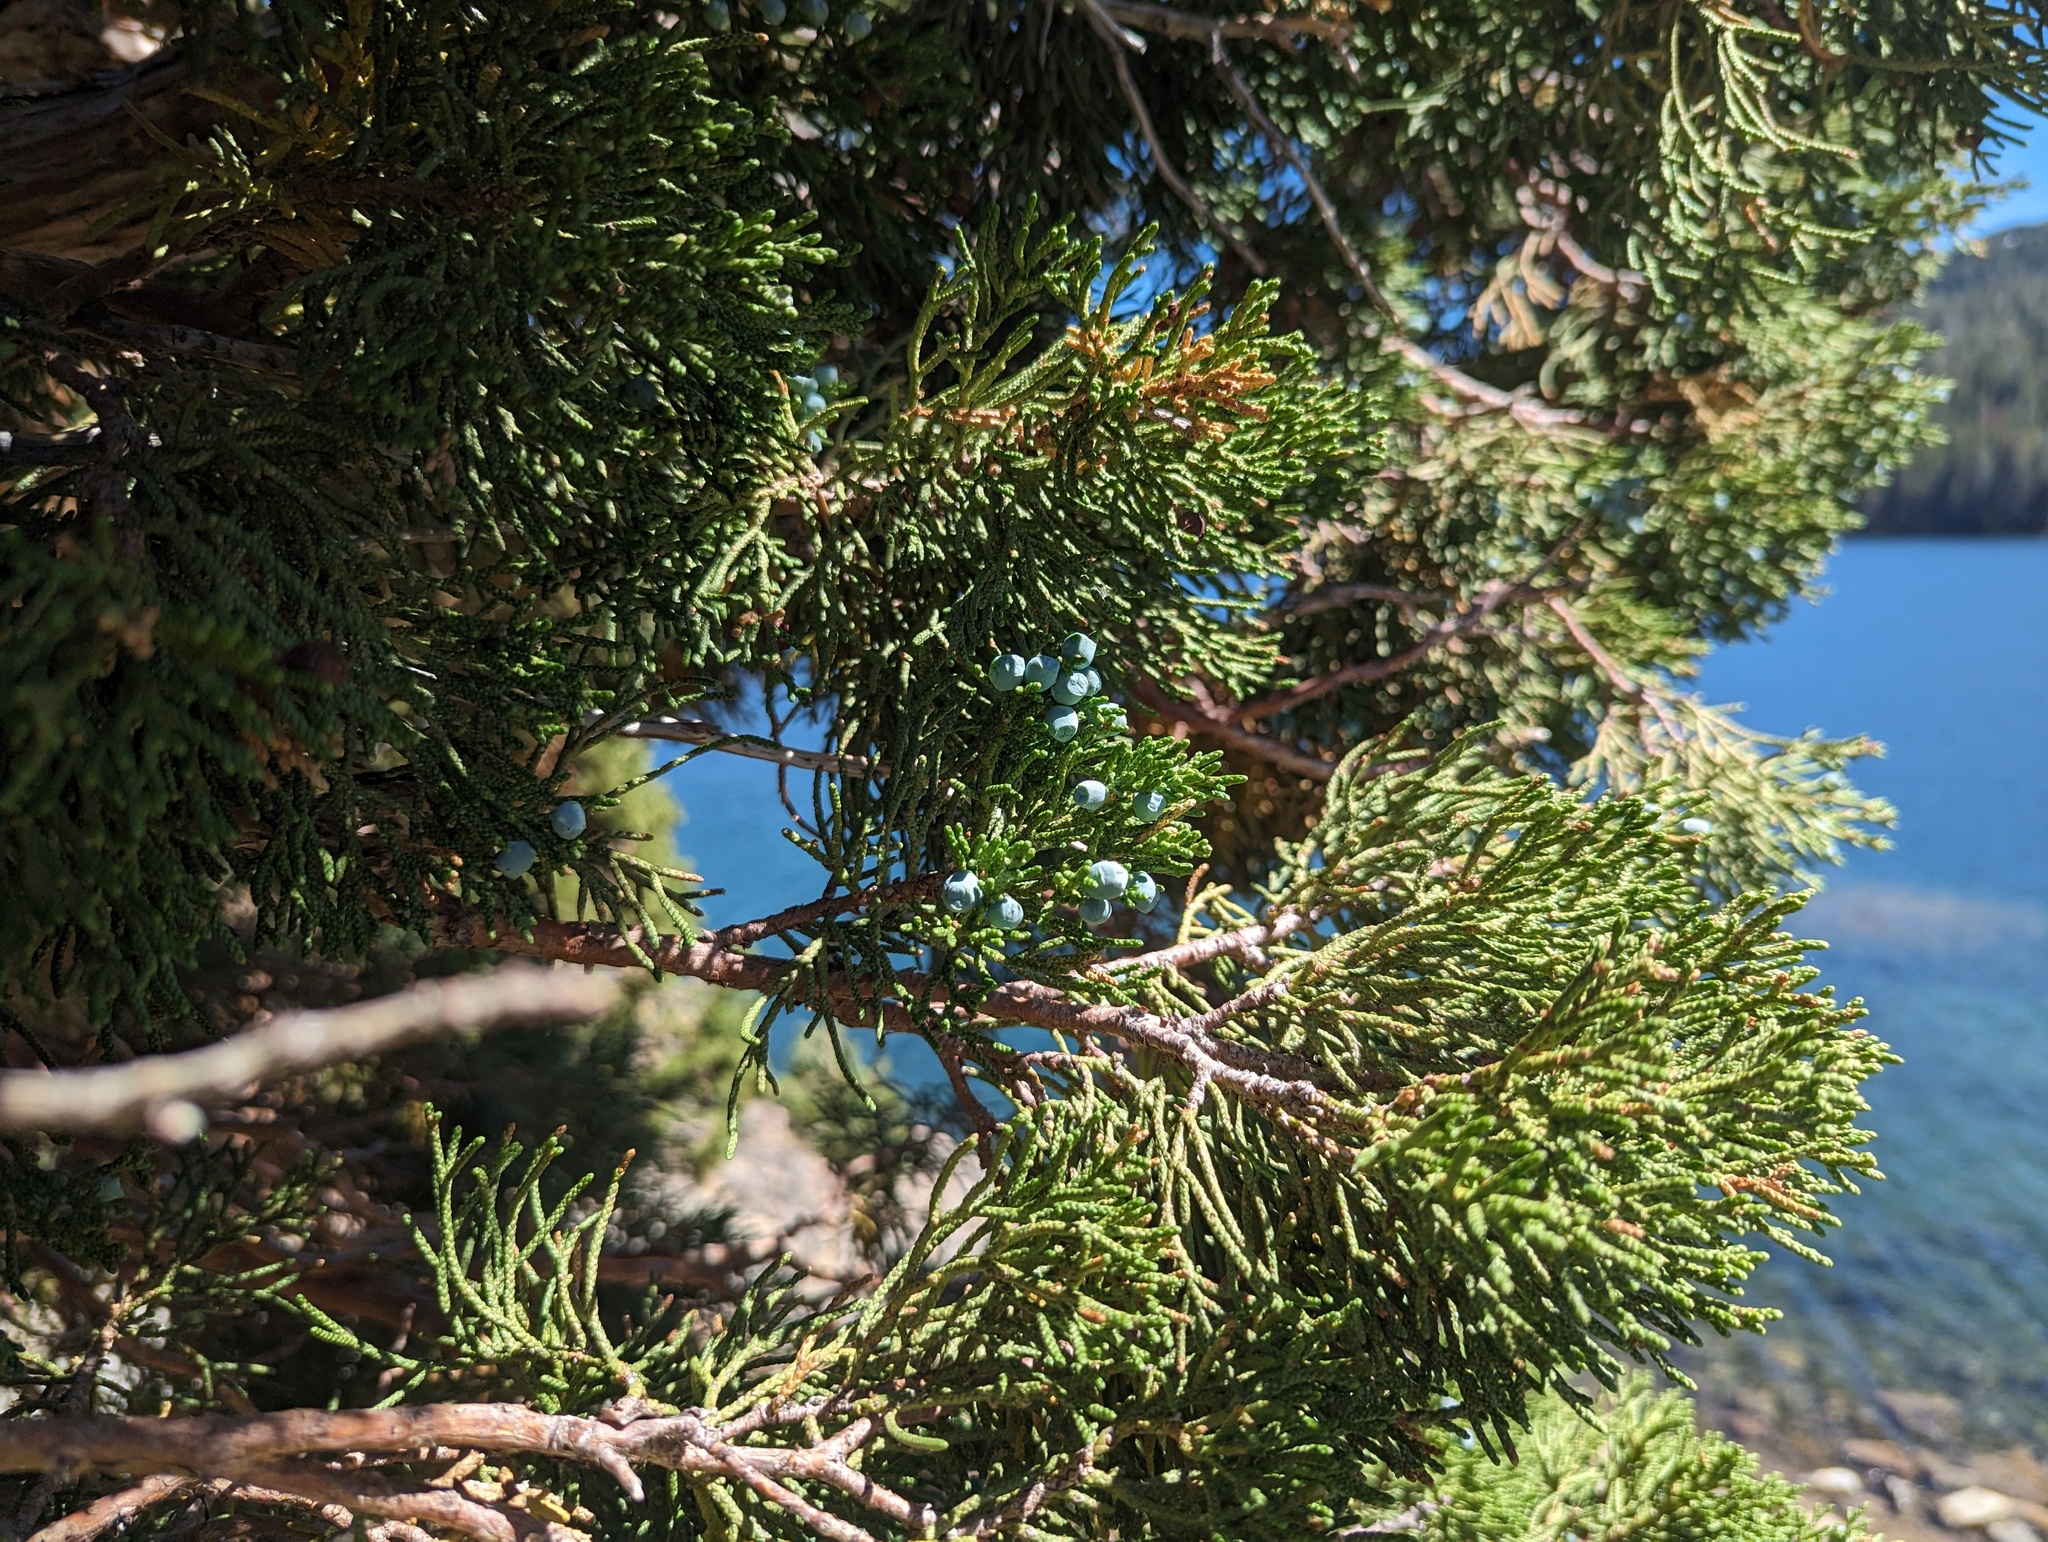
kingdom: Plantae
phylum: Tracheophyta
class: Pinopsida
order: Pinales
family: Cupressaceae
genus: Juniperus
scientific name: Juniperus occidentalis
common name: Western juniper
